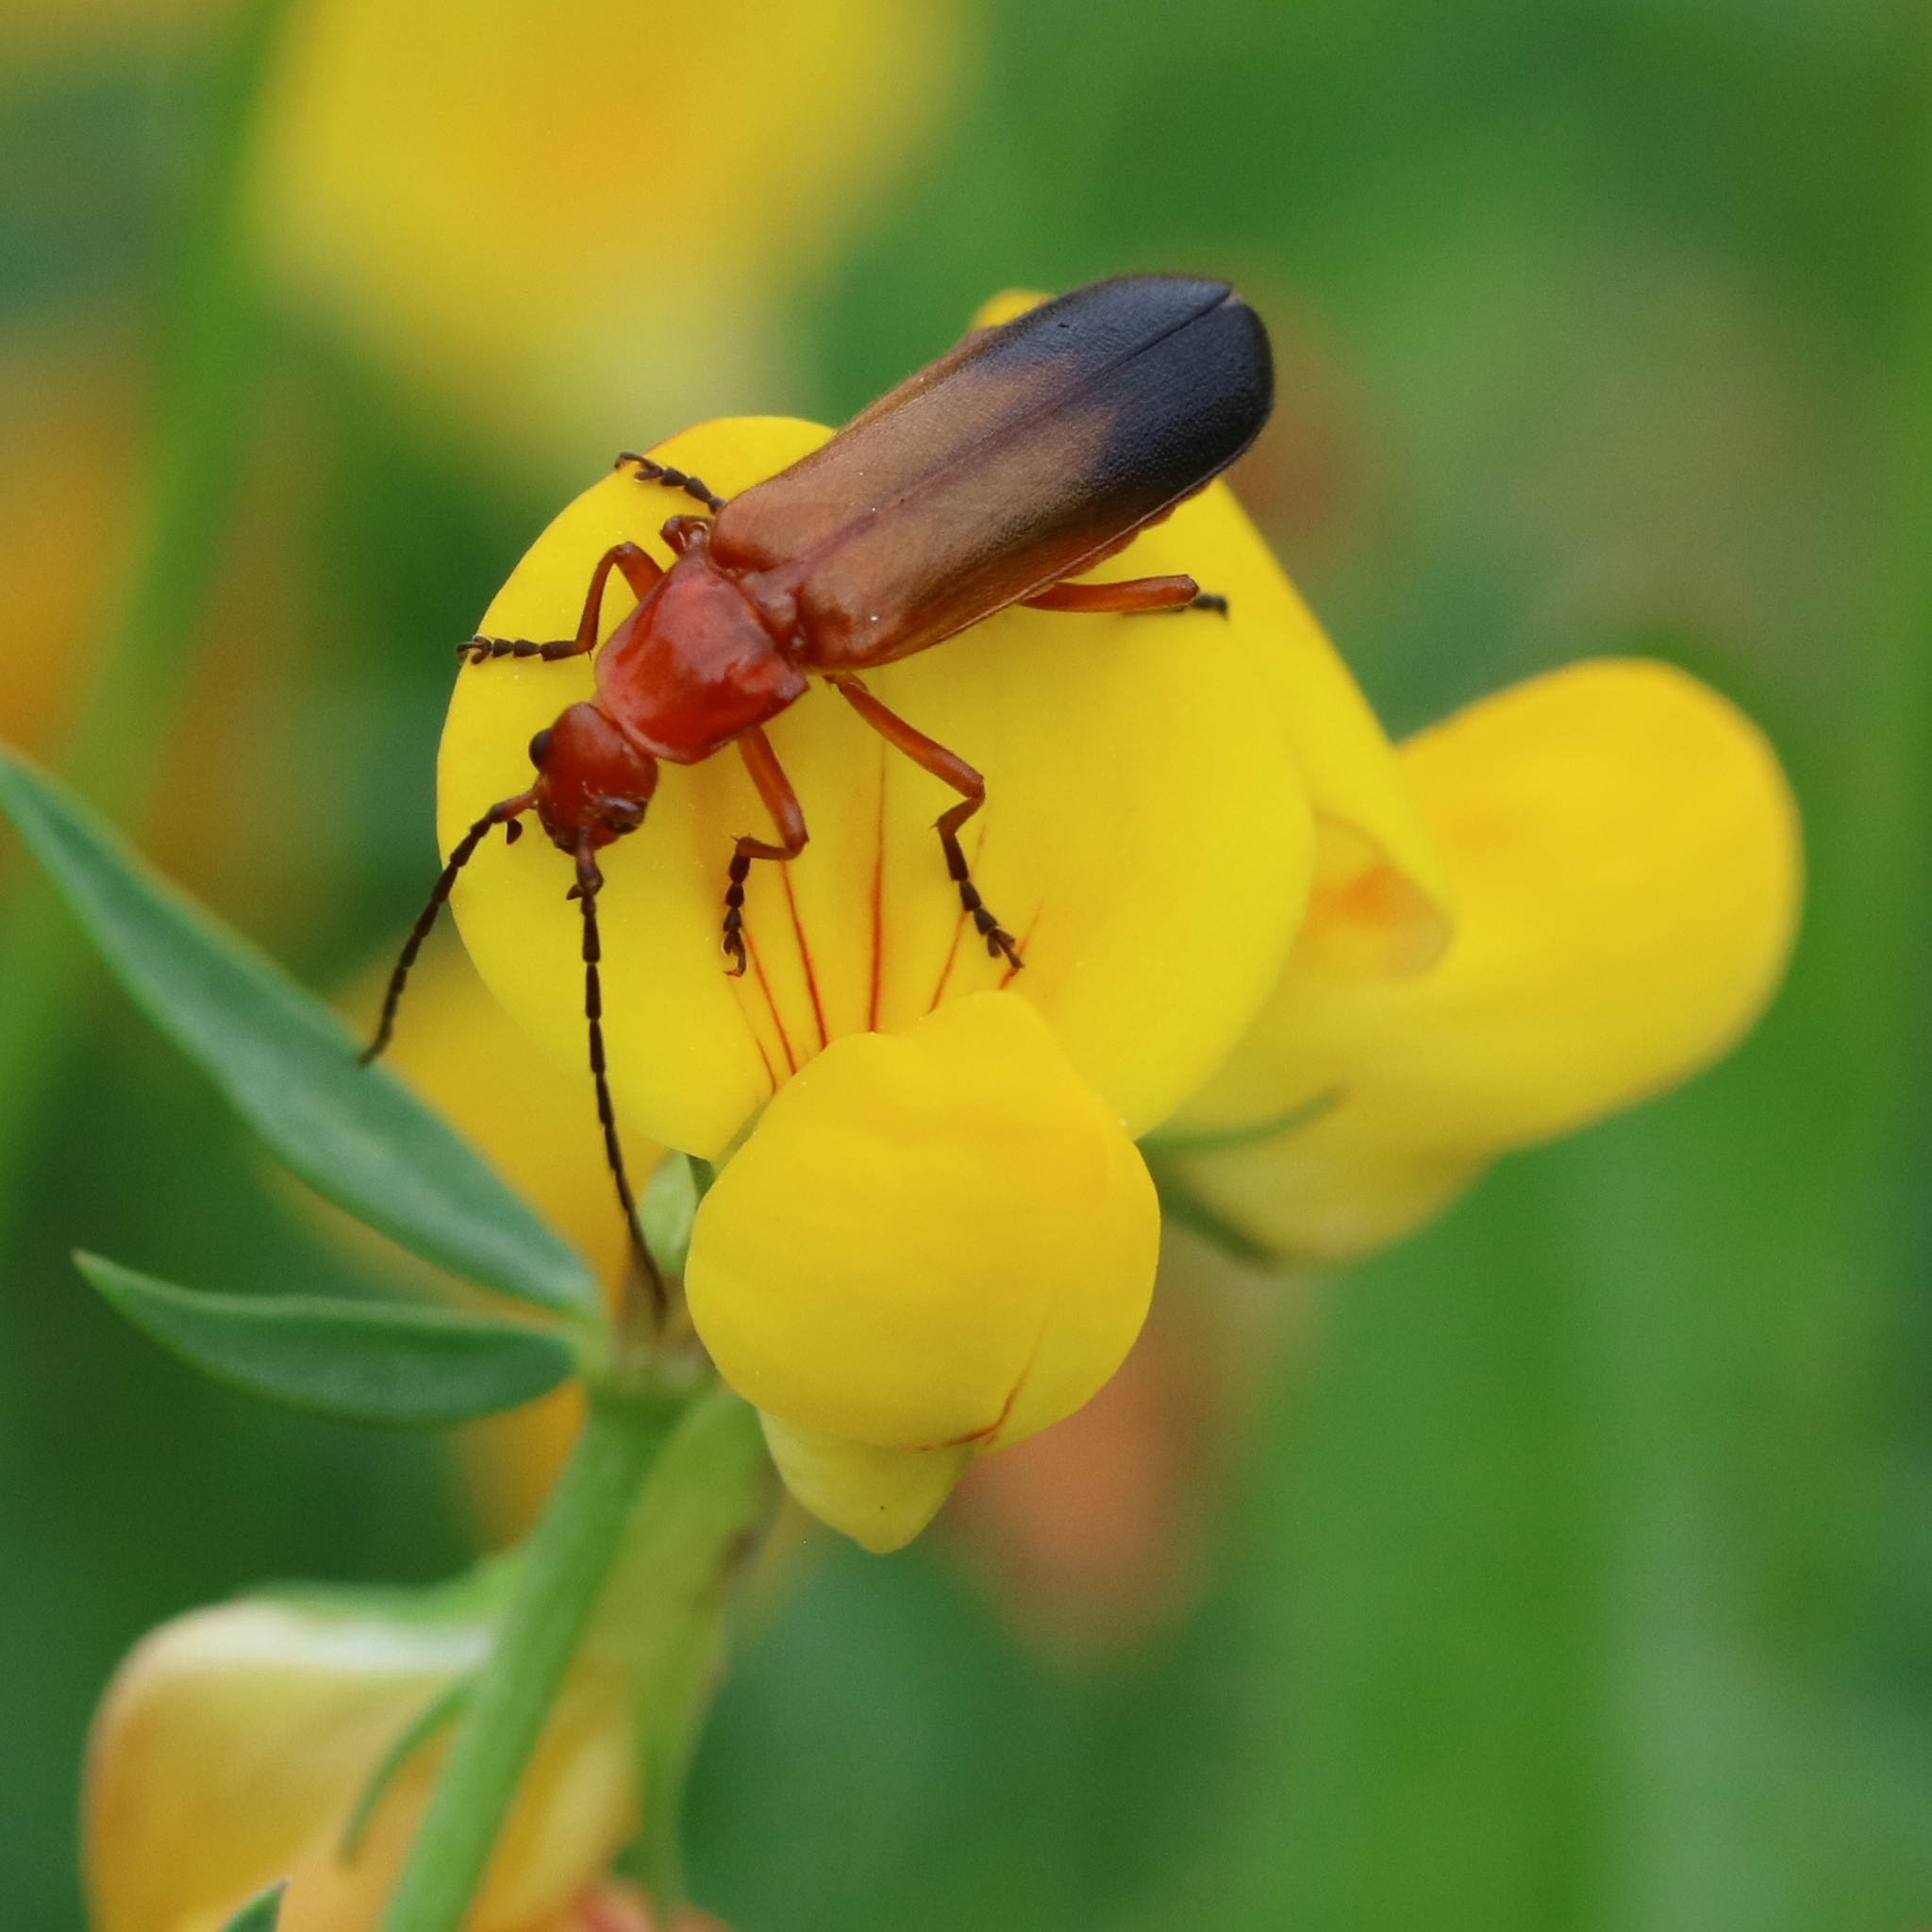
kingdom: Animalia
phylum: Arthropoda
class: Insecta
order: Coleoptera
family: Cantharidae
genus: Rhagonycha
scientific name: Rhagonycha fulva
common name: Common red soldier beetle
